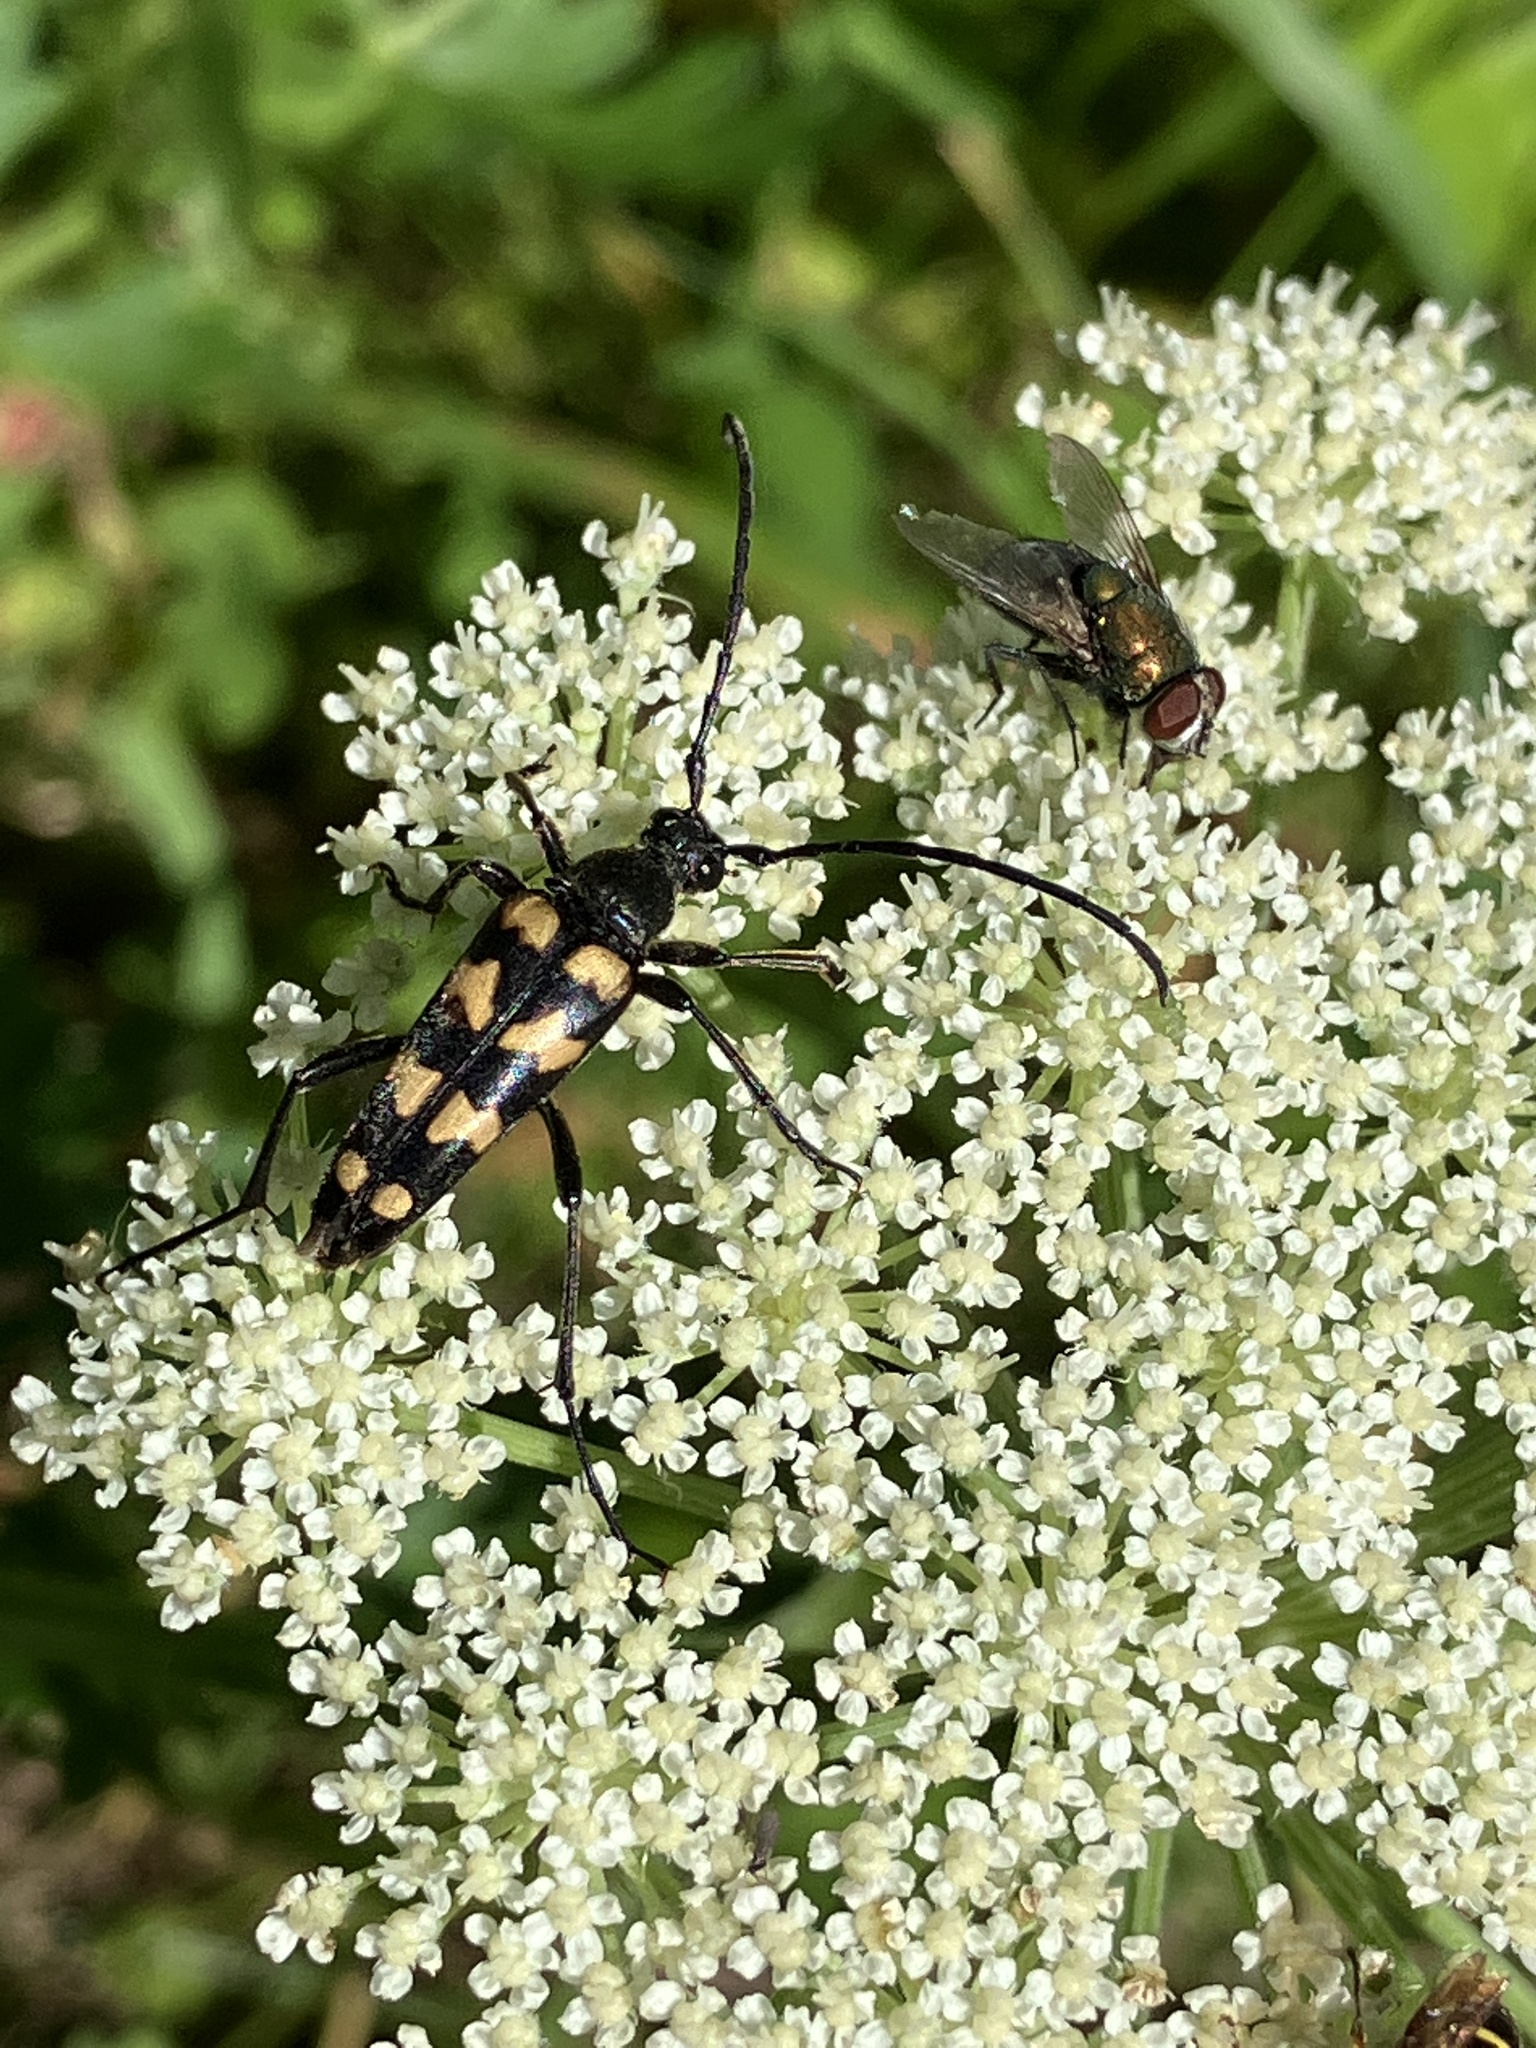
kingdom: Animalia
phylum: Arthropoda
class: Insecta
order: Coleoptera
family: Cerambycidae
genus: Leptura
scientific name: Leptura quadrifasciata
